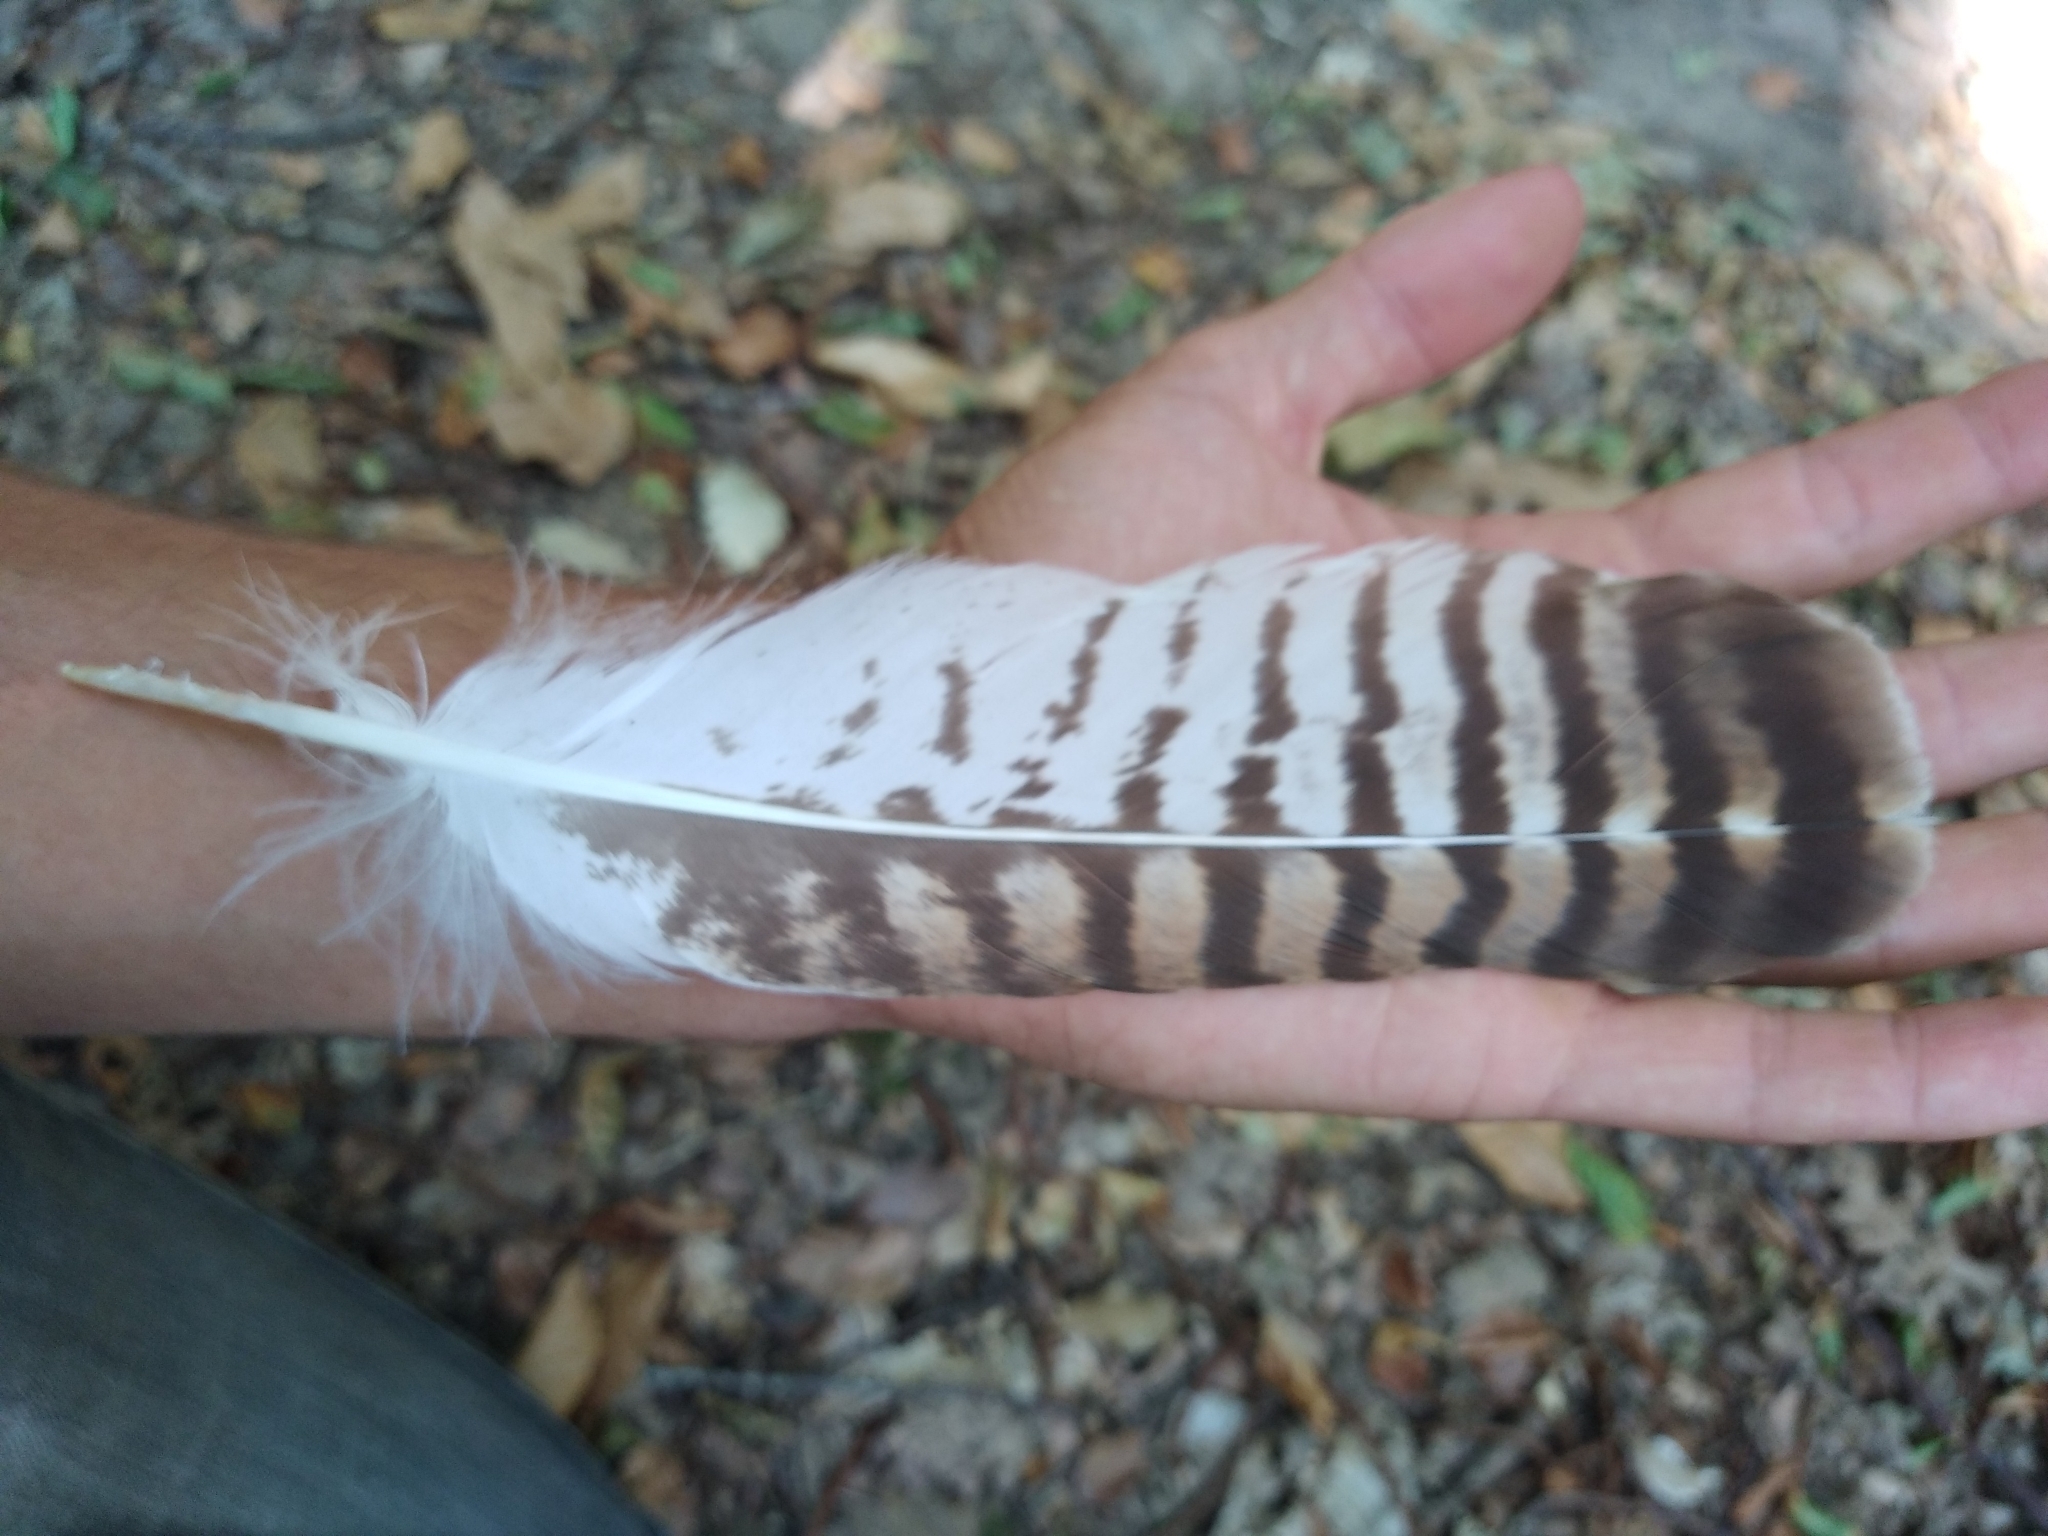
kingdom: Animalia
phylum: Chordata
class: Aves
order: Accipitriformes
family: Accipitridae
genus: Buteo
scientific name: Buteo buteo
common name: Common buzzard
